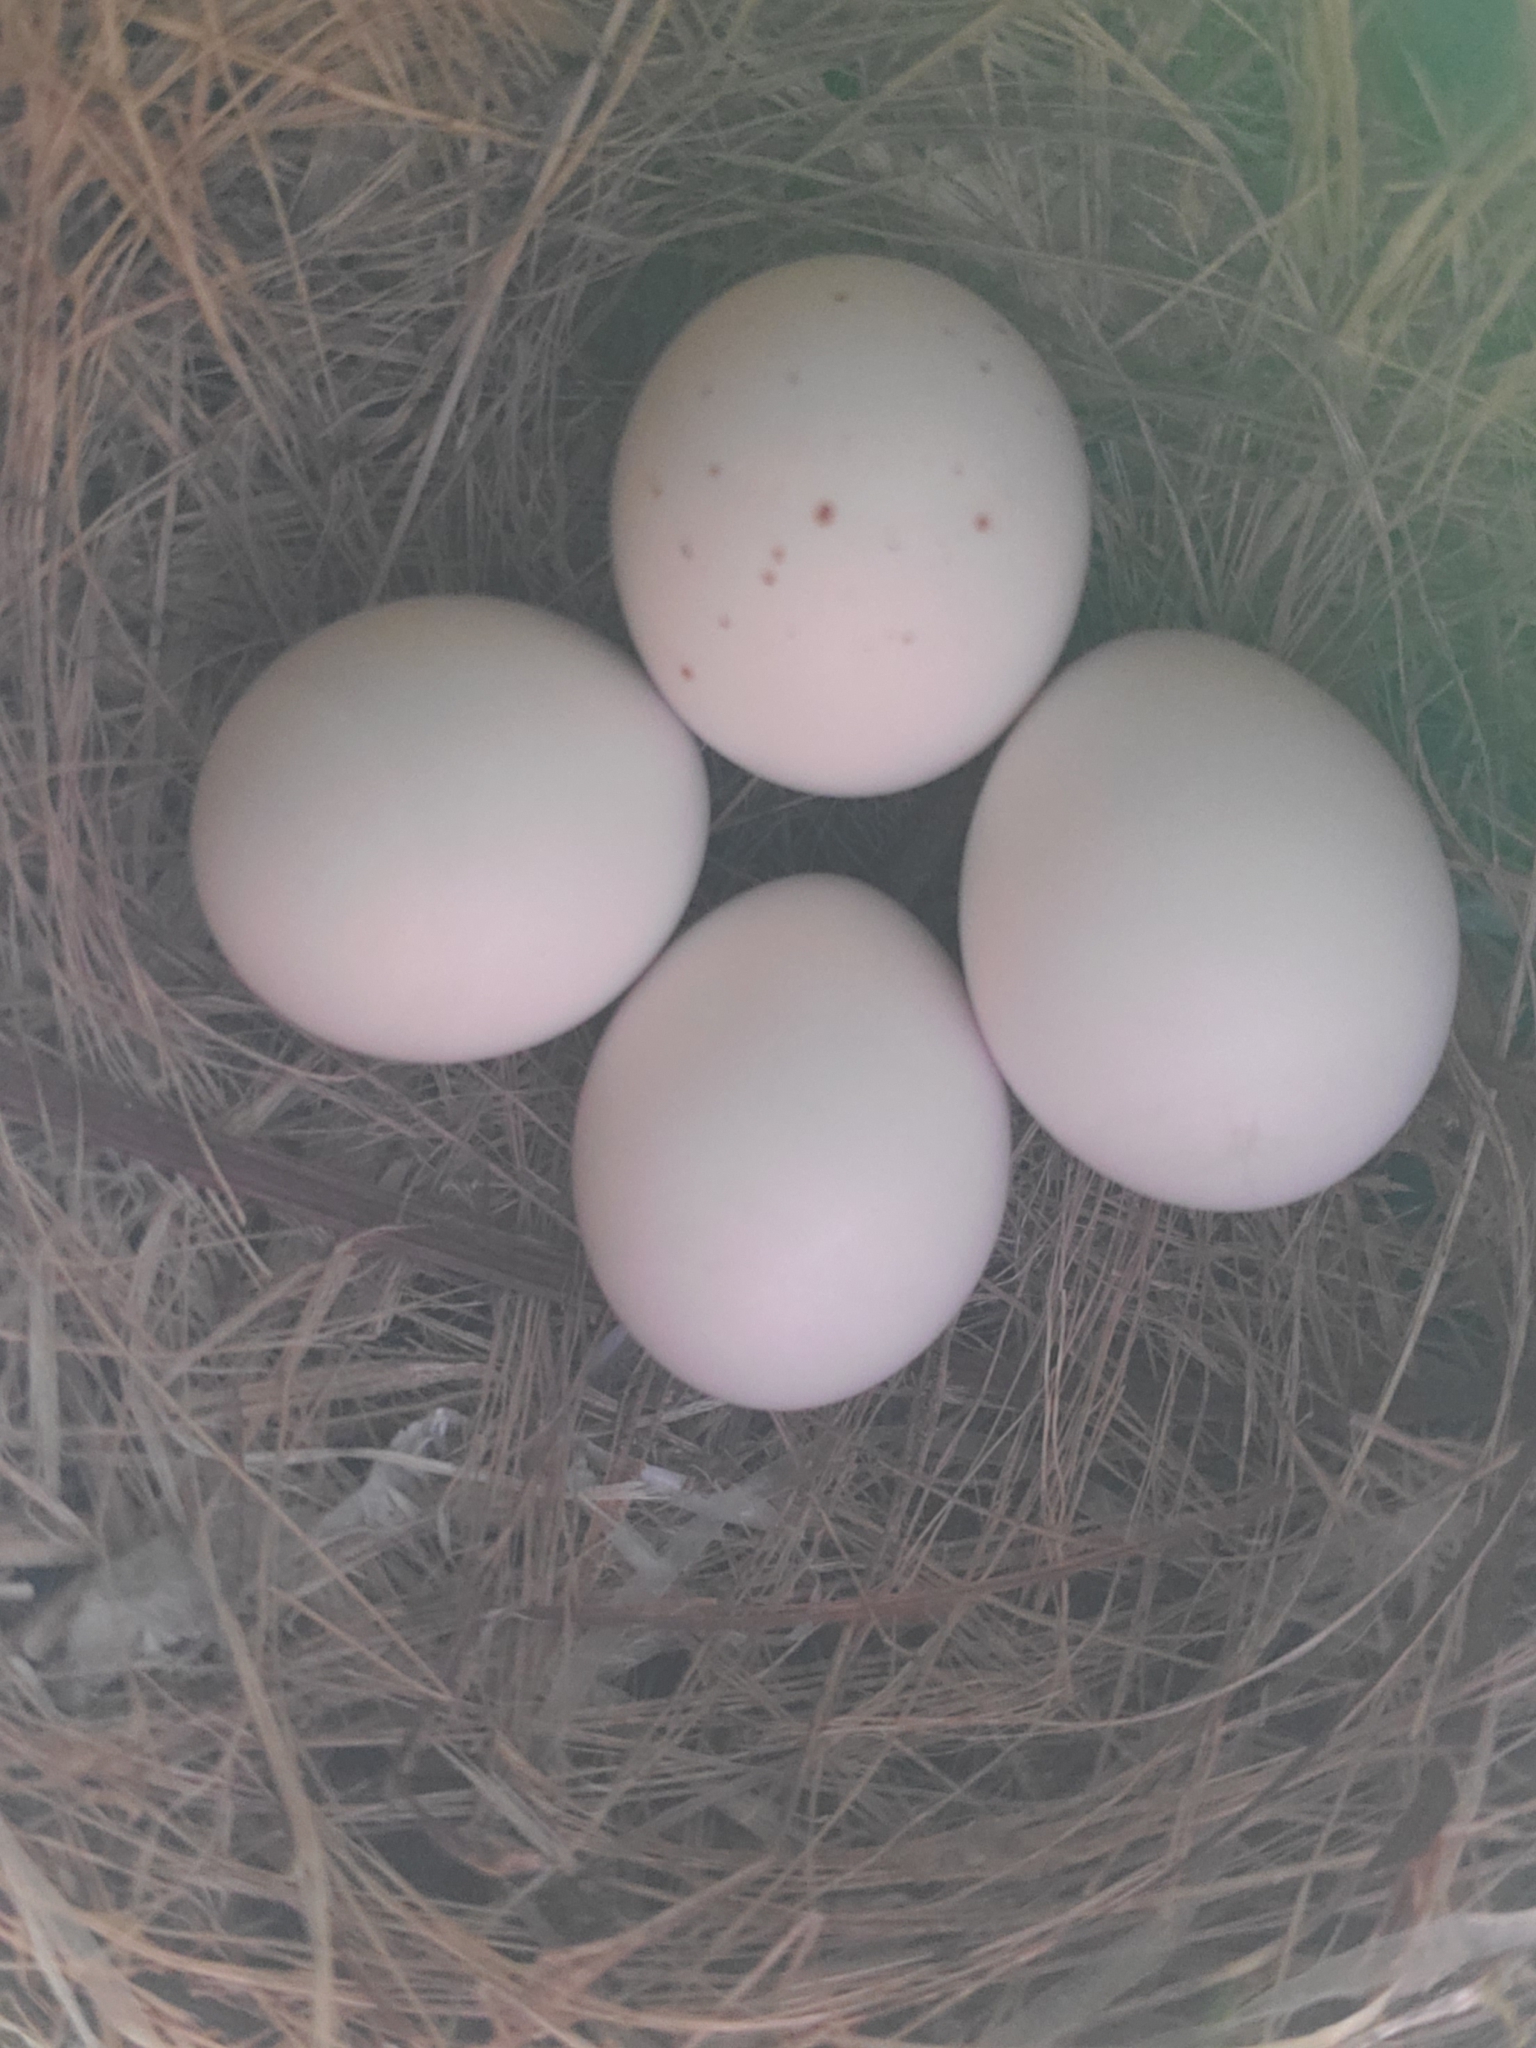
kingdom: Animalia
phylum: Chordata
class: Aves
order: Passeriformes
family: Tyrannidae
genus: Sayornis
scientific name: Sayornis phoebe
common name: Eastern phoebe
